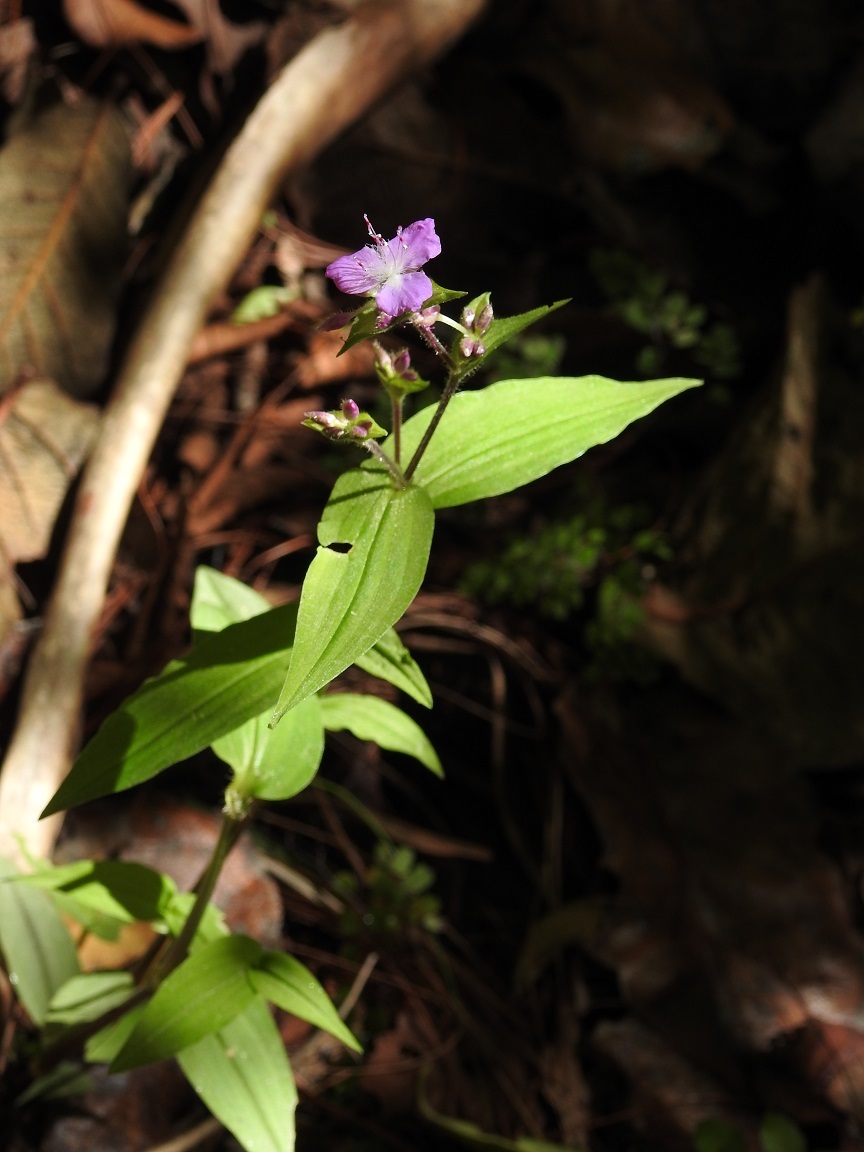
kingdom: Plantae
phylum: Tracheophyta
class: Liliopsida
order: Commelinales
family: Commelinaceae
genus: Tradescantia
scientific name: Tradescantia commelinoides
